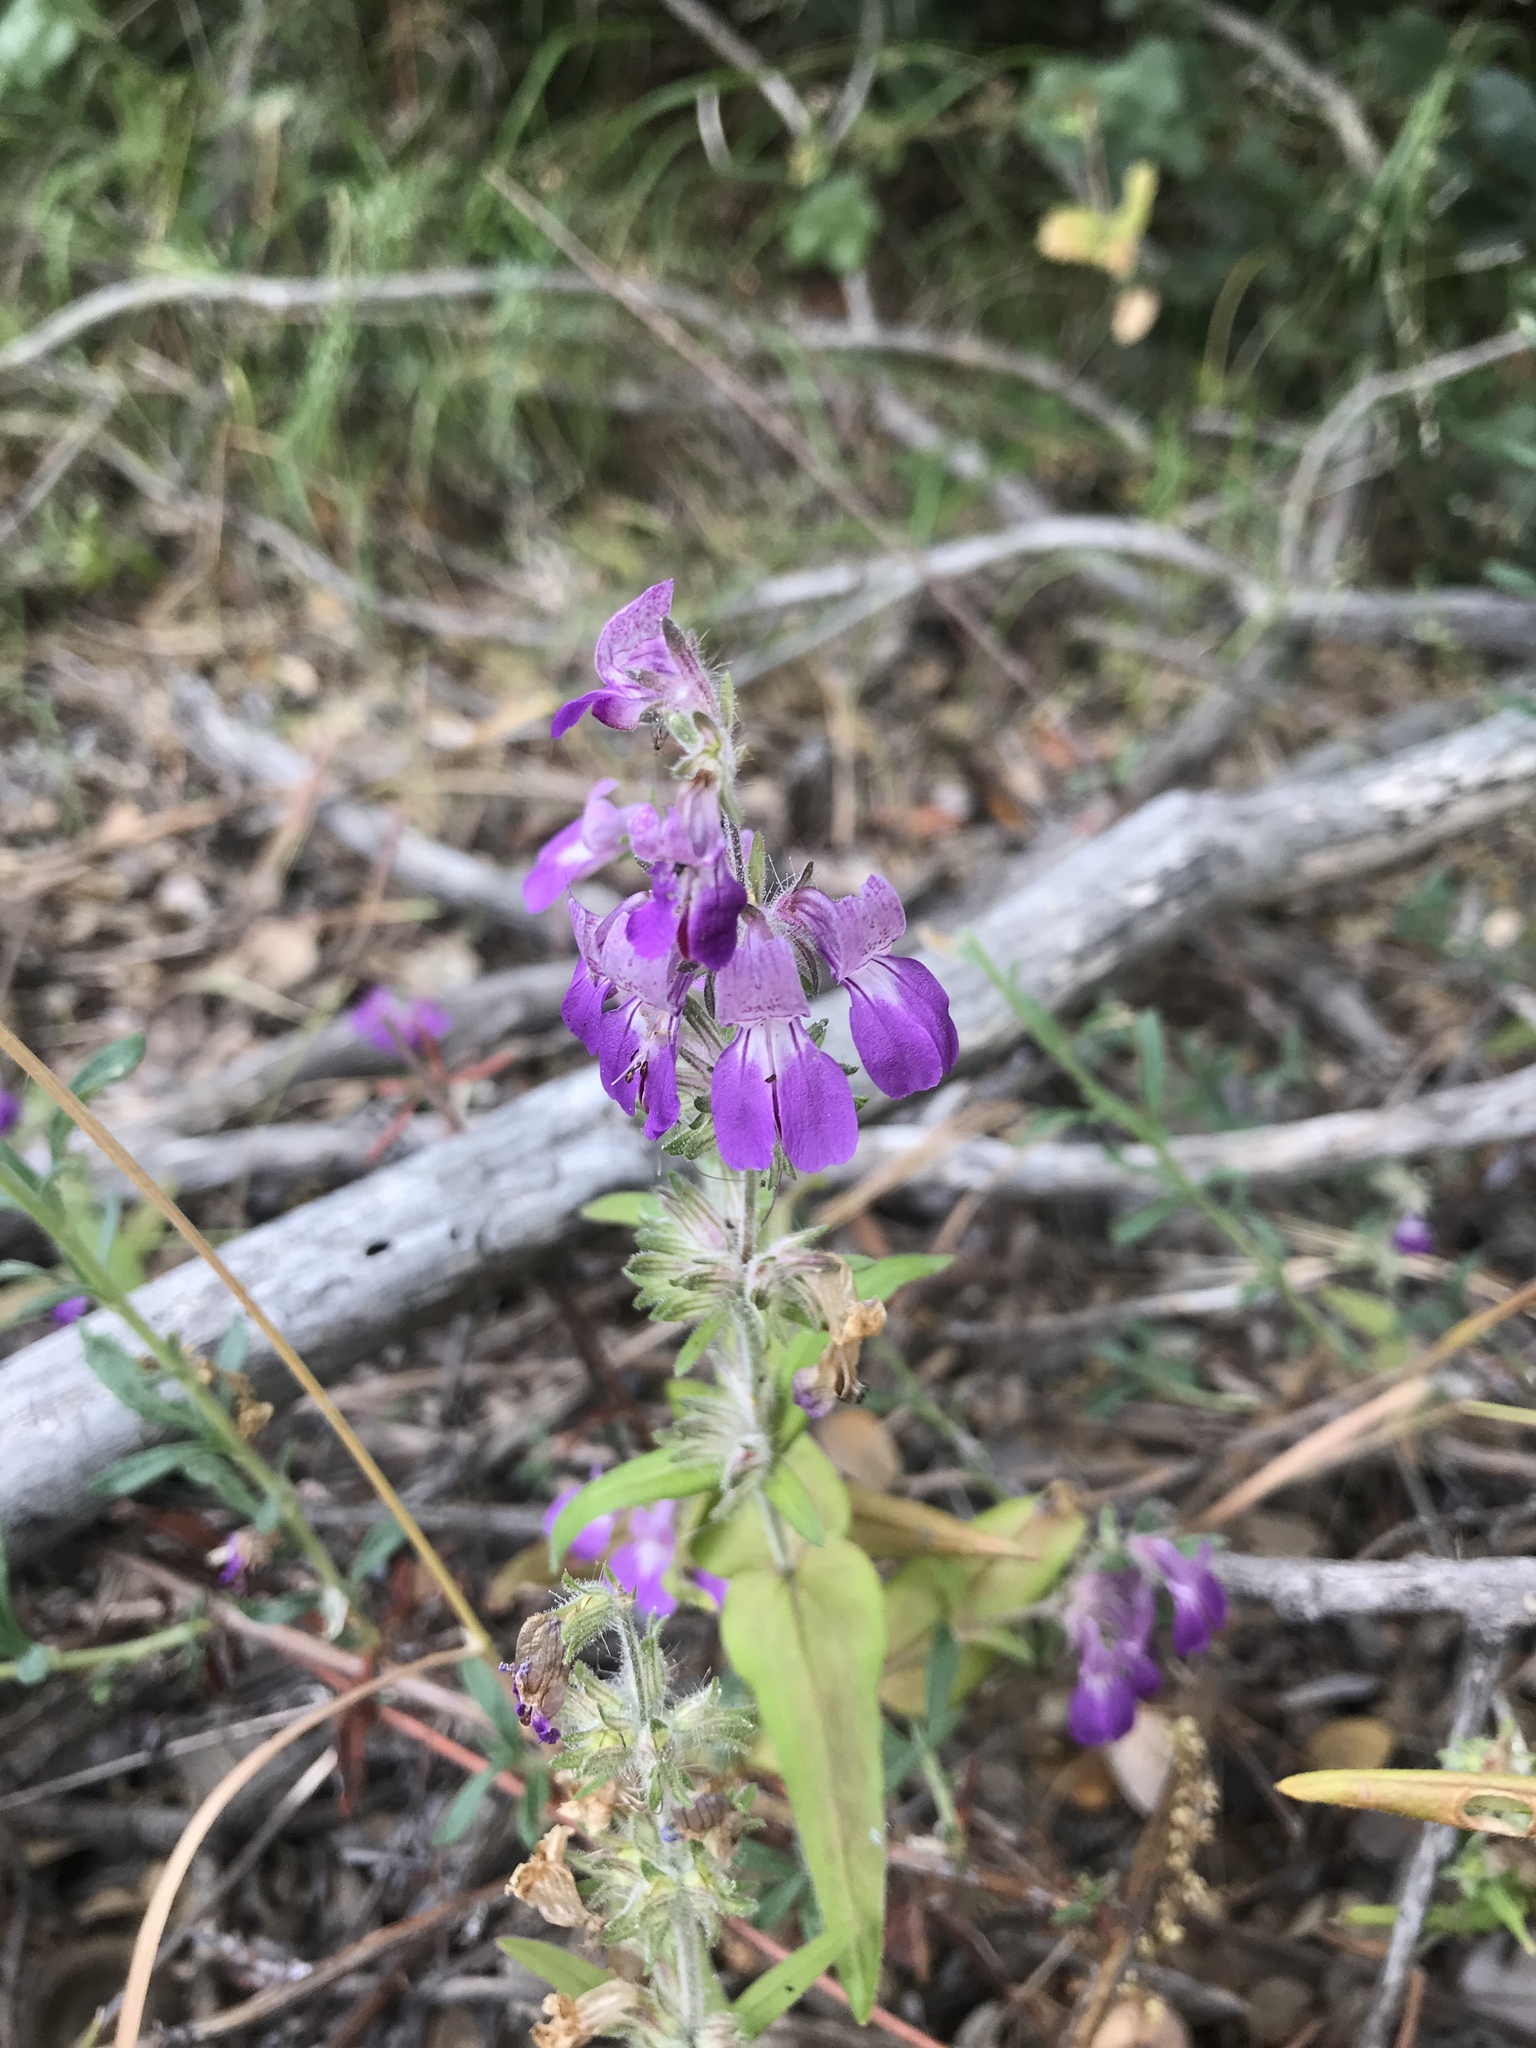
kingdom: Plantae
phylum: Tracheophyta
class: Magnoliopsida
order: Lamiales
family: Plantaginaceae
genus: Collinsia
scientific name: Collinsia heterophylla
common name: Chinese-houses
